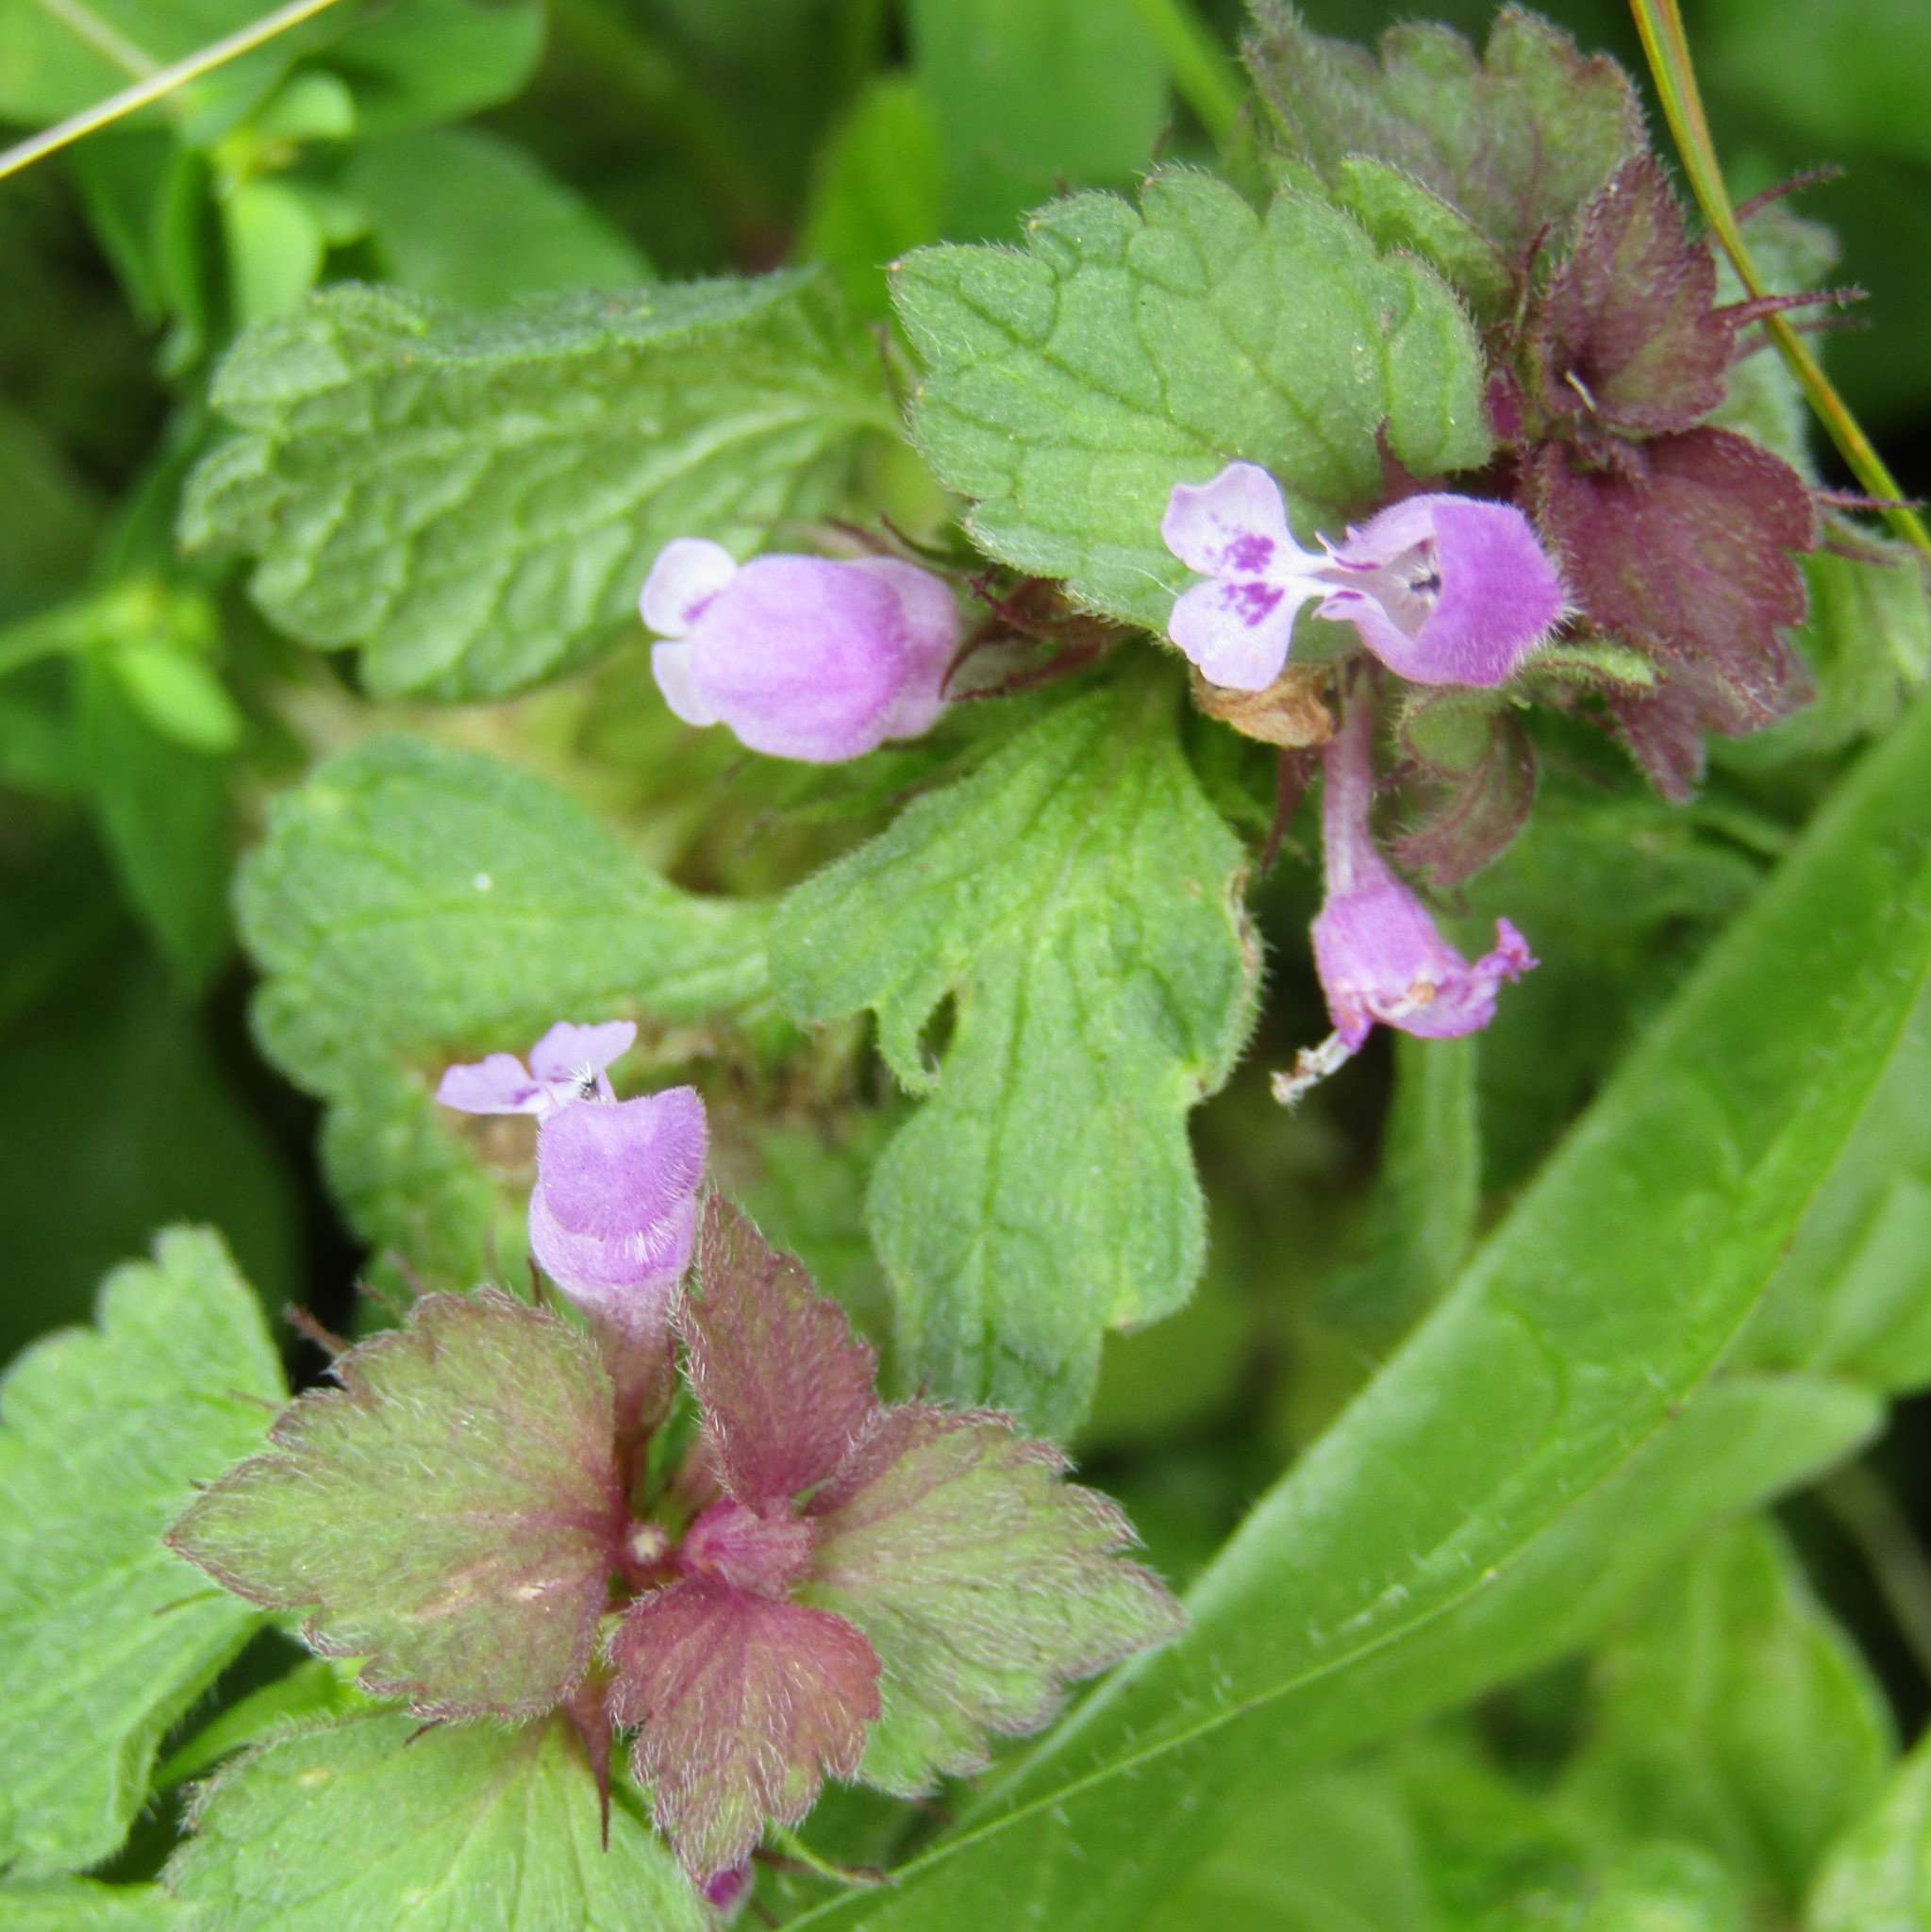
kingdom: Plantae
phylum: Tracheophyta
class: Magnoliopsida
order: Lamiales
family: Lamiaceae
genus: Lamium
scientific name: Lamium purpureum
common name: Red dead-nettle
